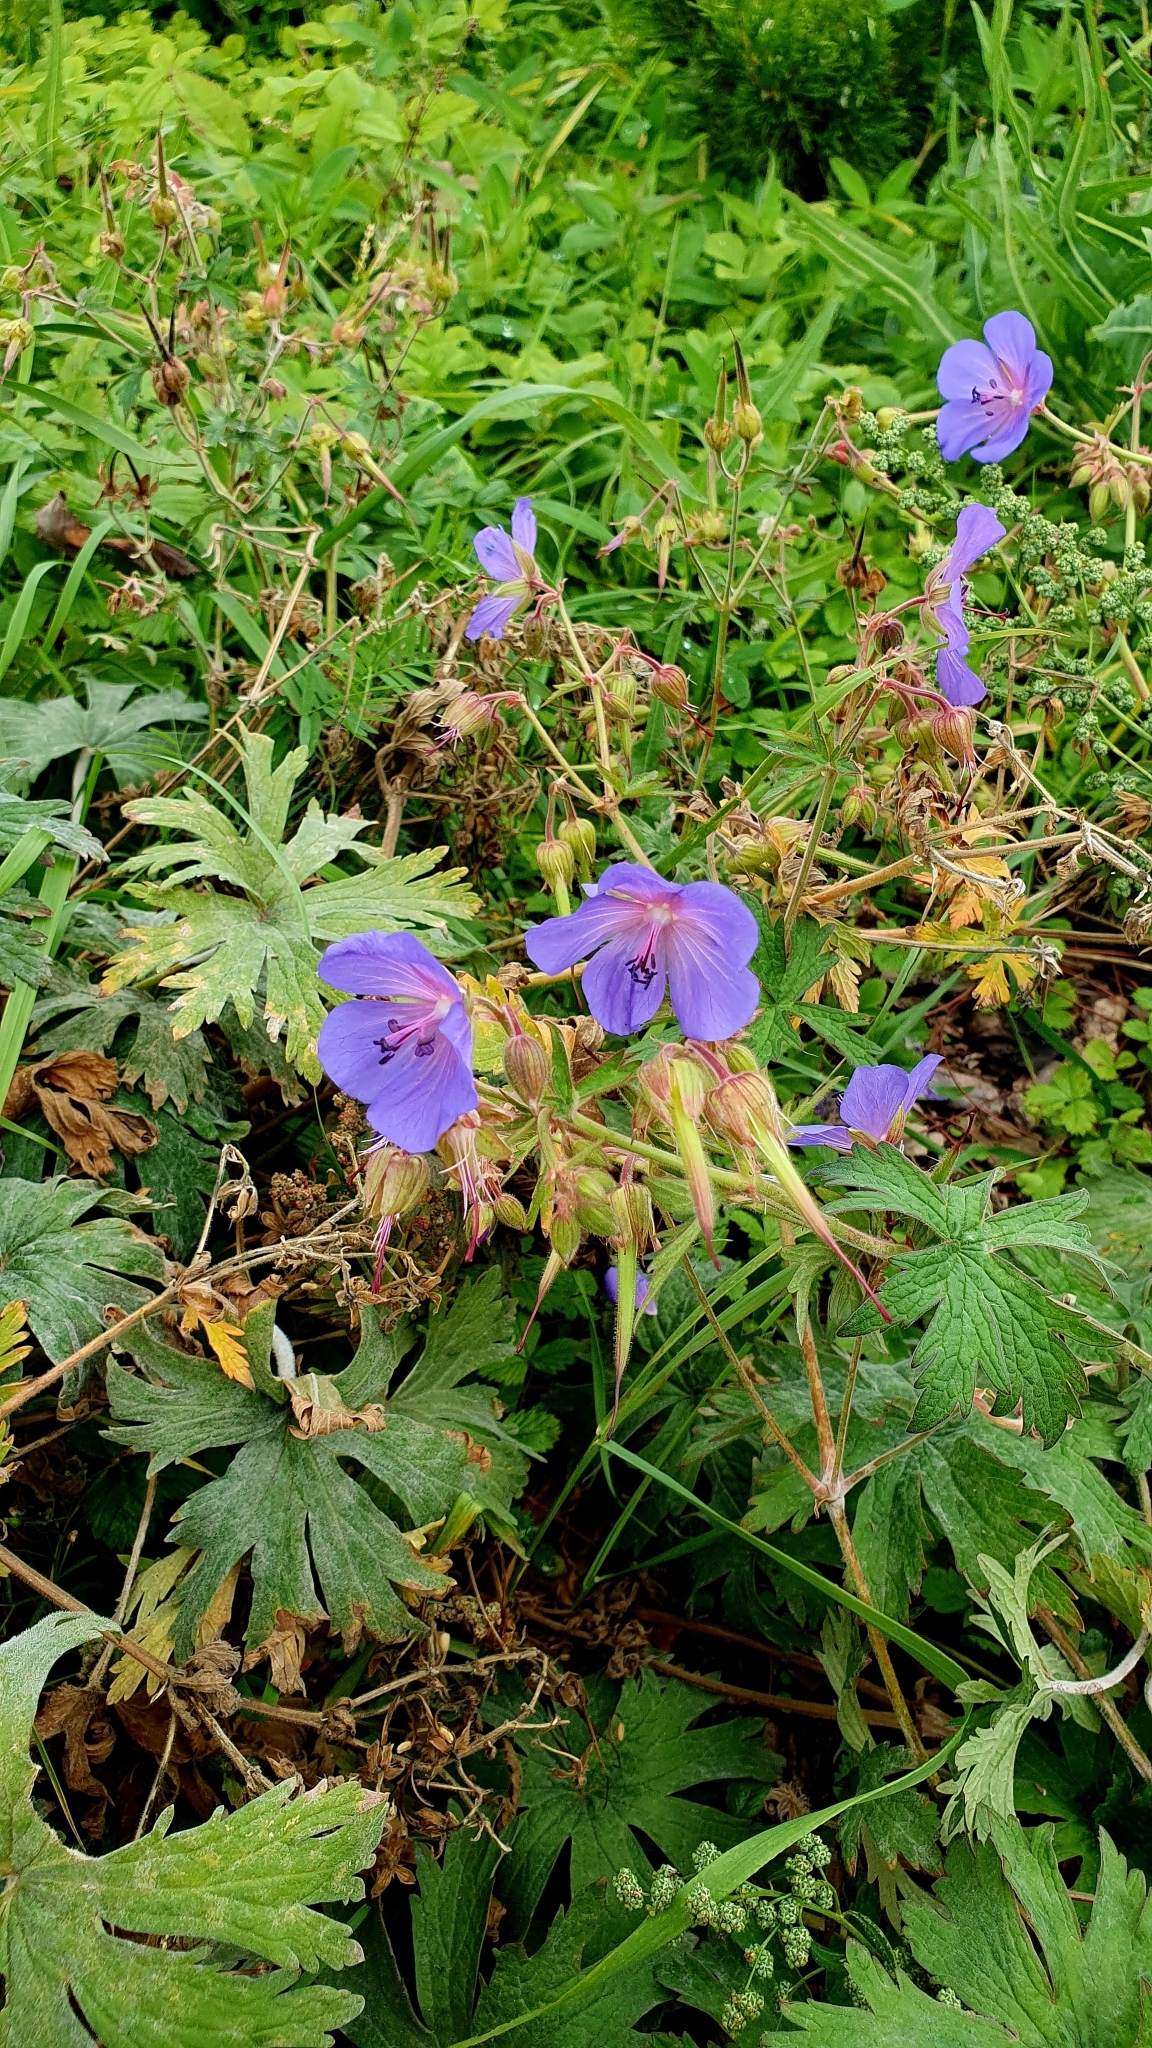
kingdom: Plantae
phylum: Tracheophyta
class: Magnoliopsida
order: Geraniales
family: Geraniaceae
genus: Geranium
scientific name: Geranium pratense
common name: Meadow crane's-bill
